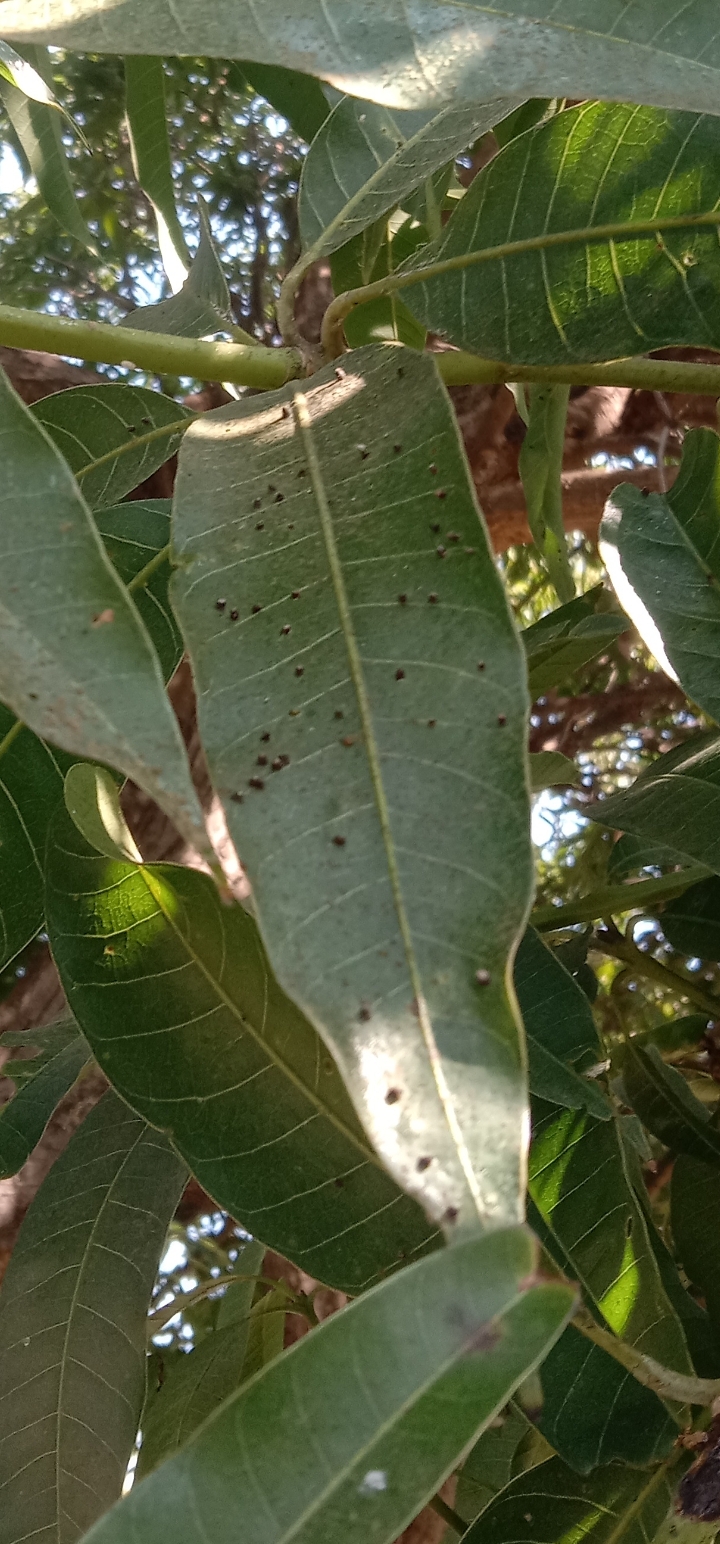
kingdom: Animalia
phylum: Arthropoda
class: Insecta
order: Diptera
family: Cecidomyiidae
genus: Procontarinia
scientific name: Procontarinia robusta
